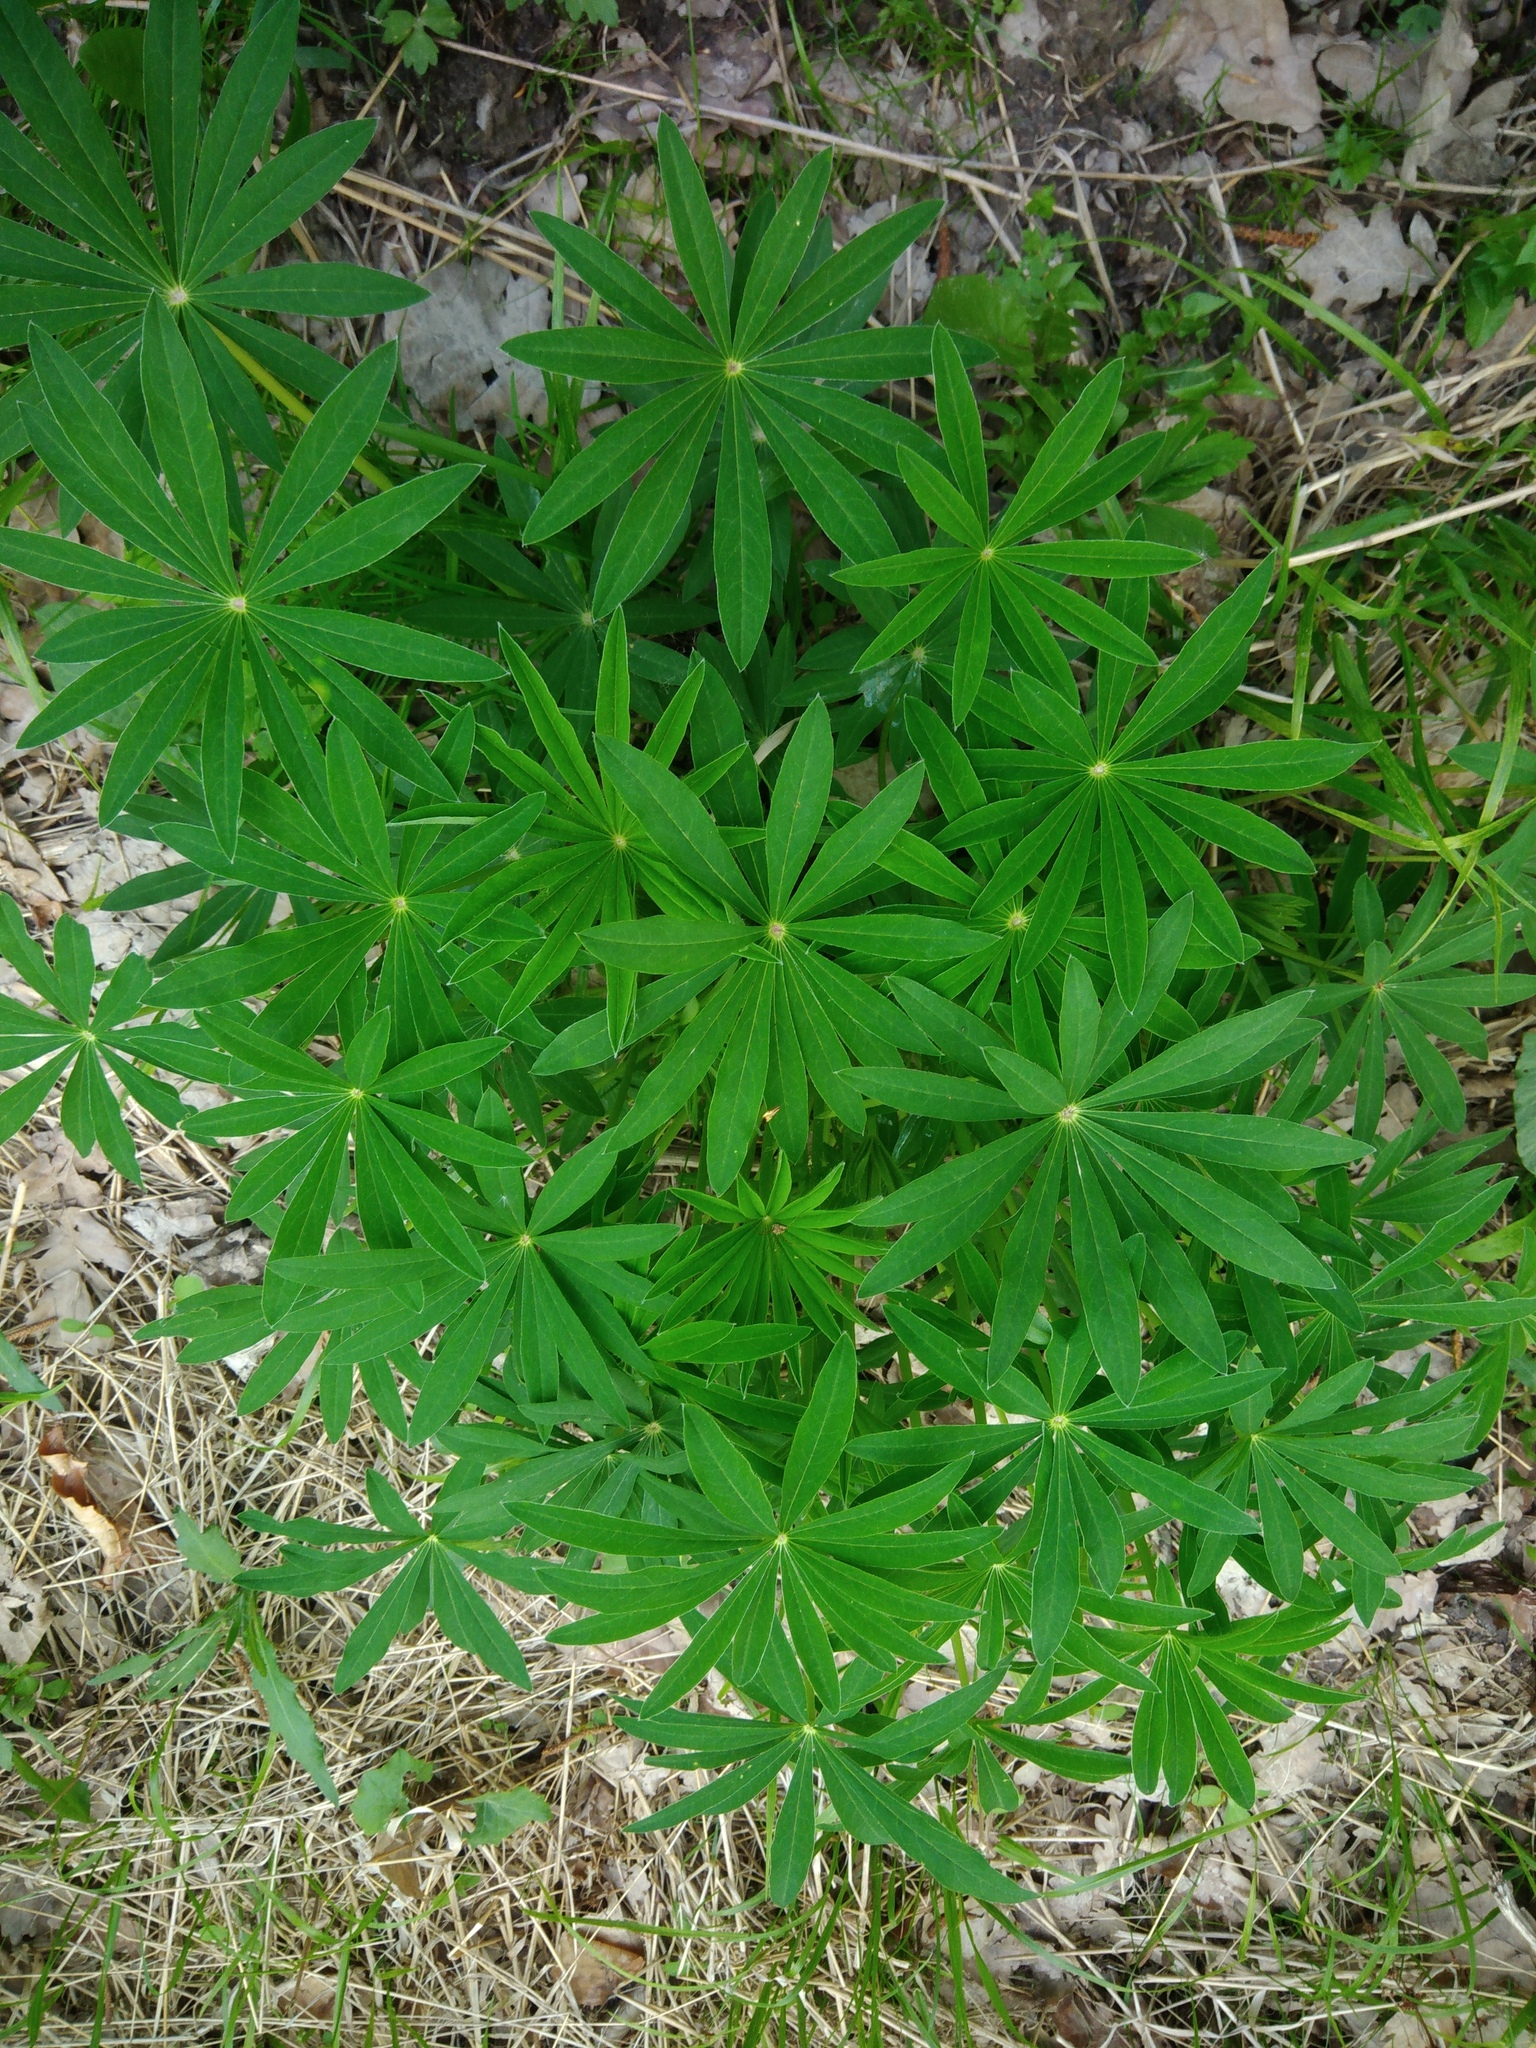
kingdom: Plantae
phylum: Tracheophyta
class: Magnoliopsida
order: Fabales
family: Fabaceae
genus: Lupinus
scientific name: Lupinus polyphyllus
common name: Garden lupin
